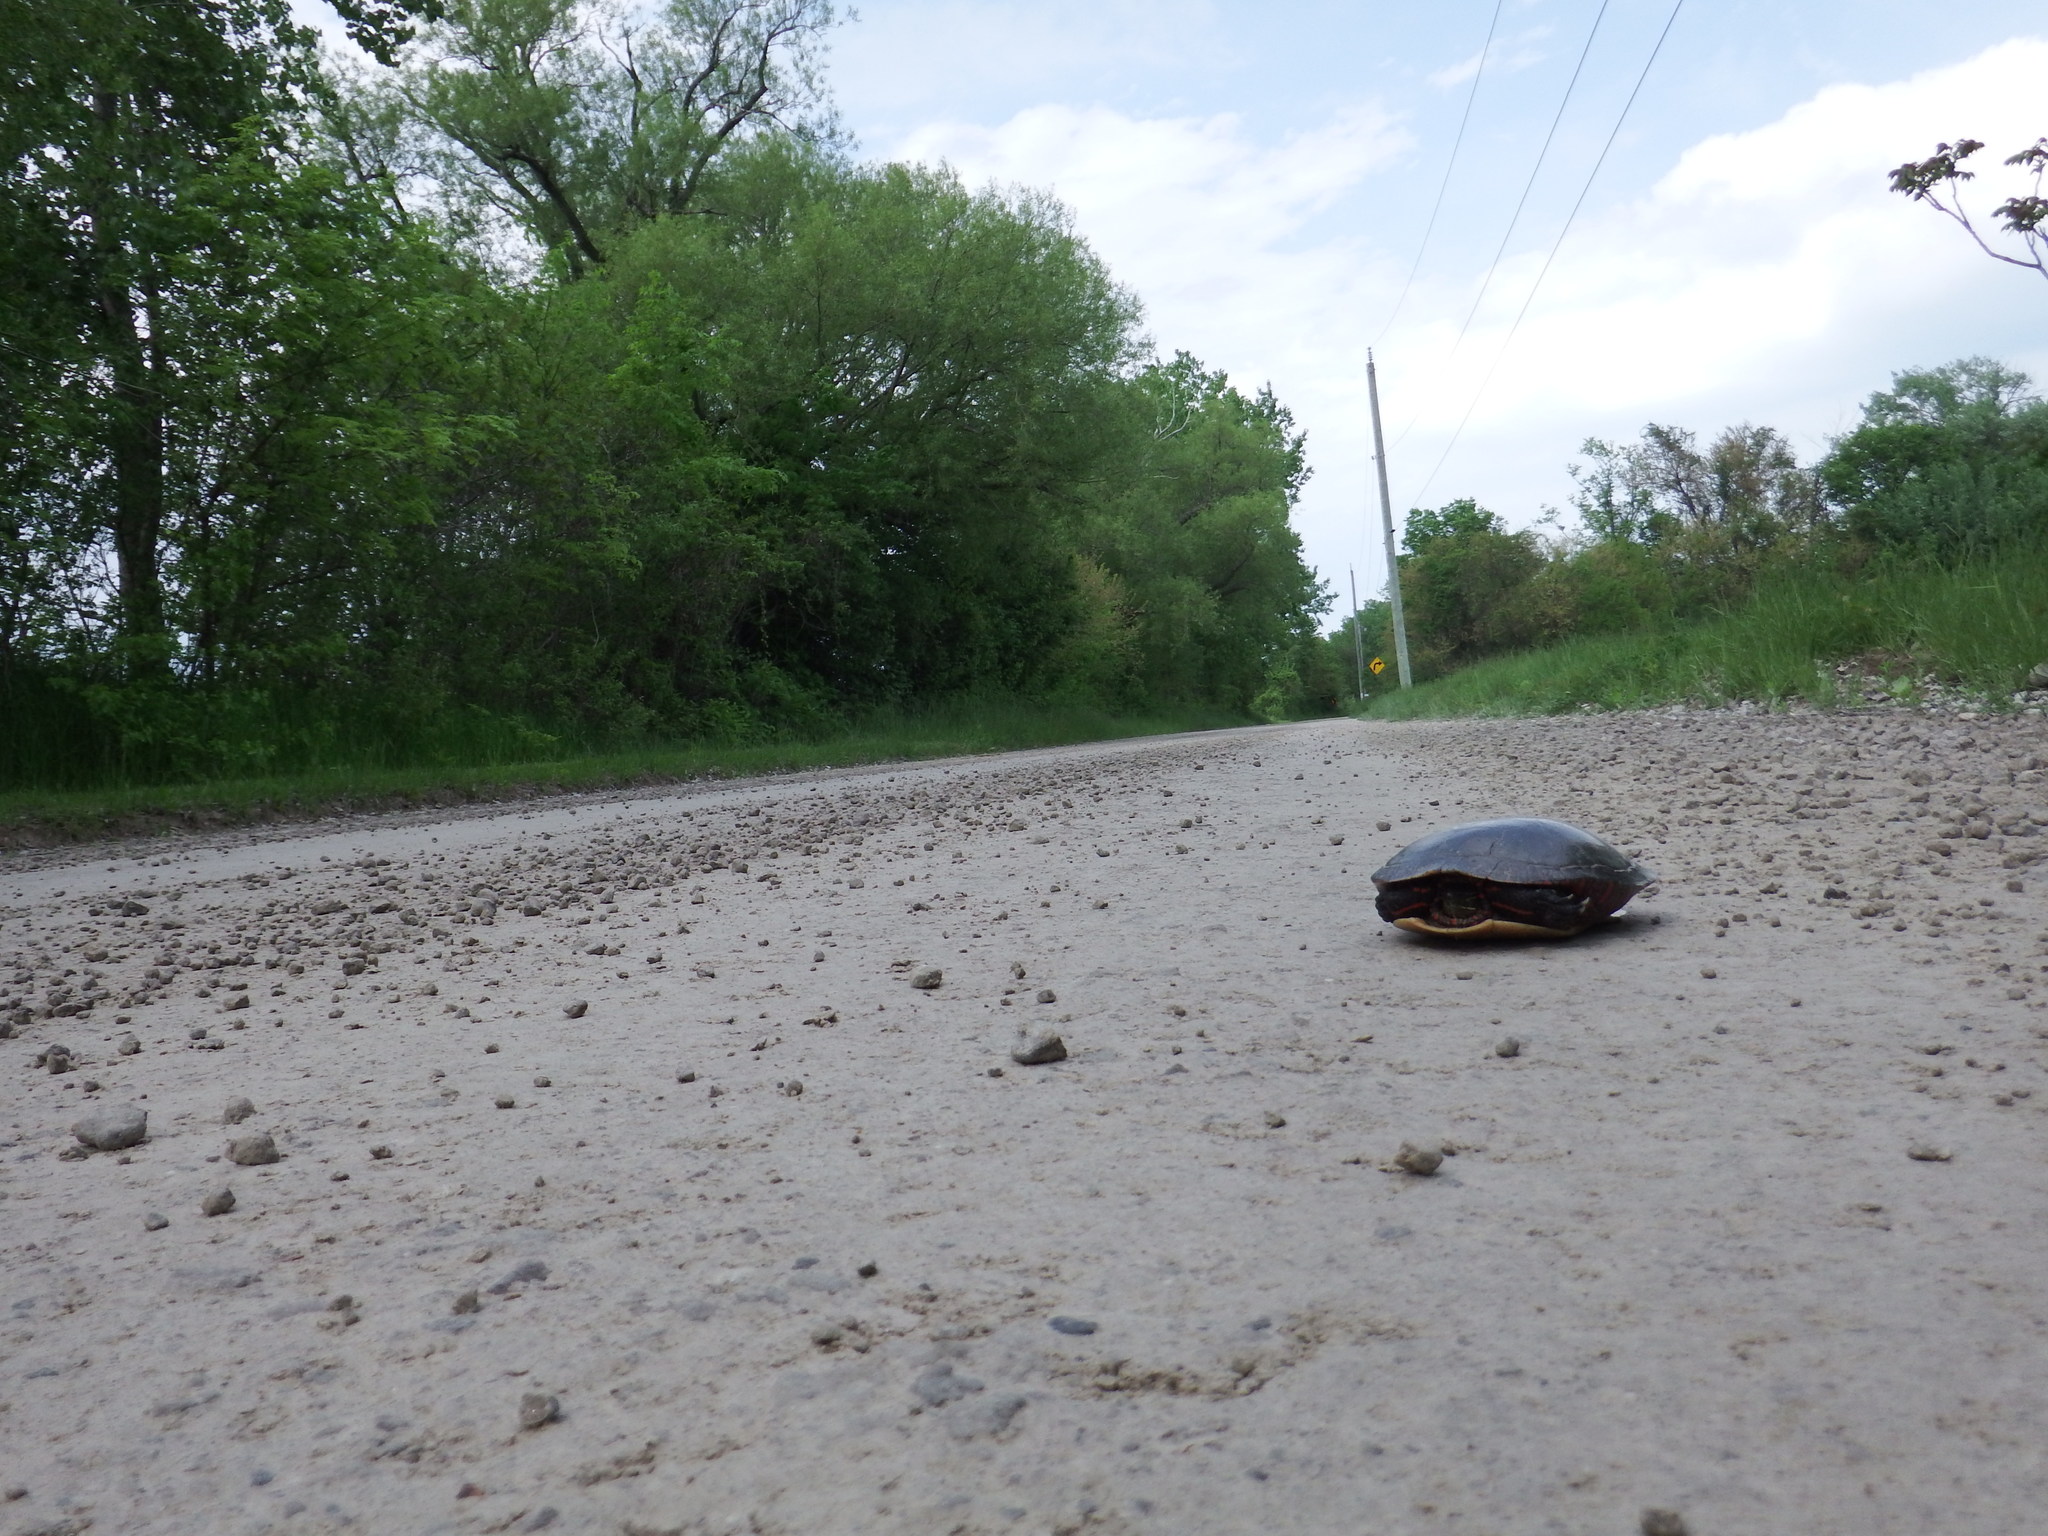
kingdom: Animalia
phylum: Chordata
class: Testudines
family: Emydidae
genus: Chrysemys
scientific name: Chrysemys picta
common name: Painted turtle
